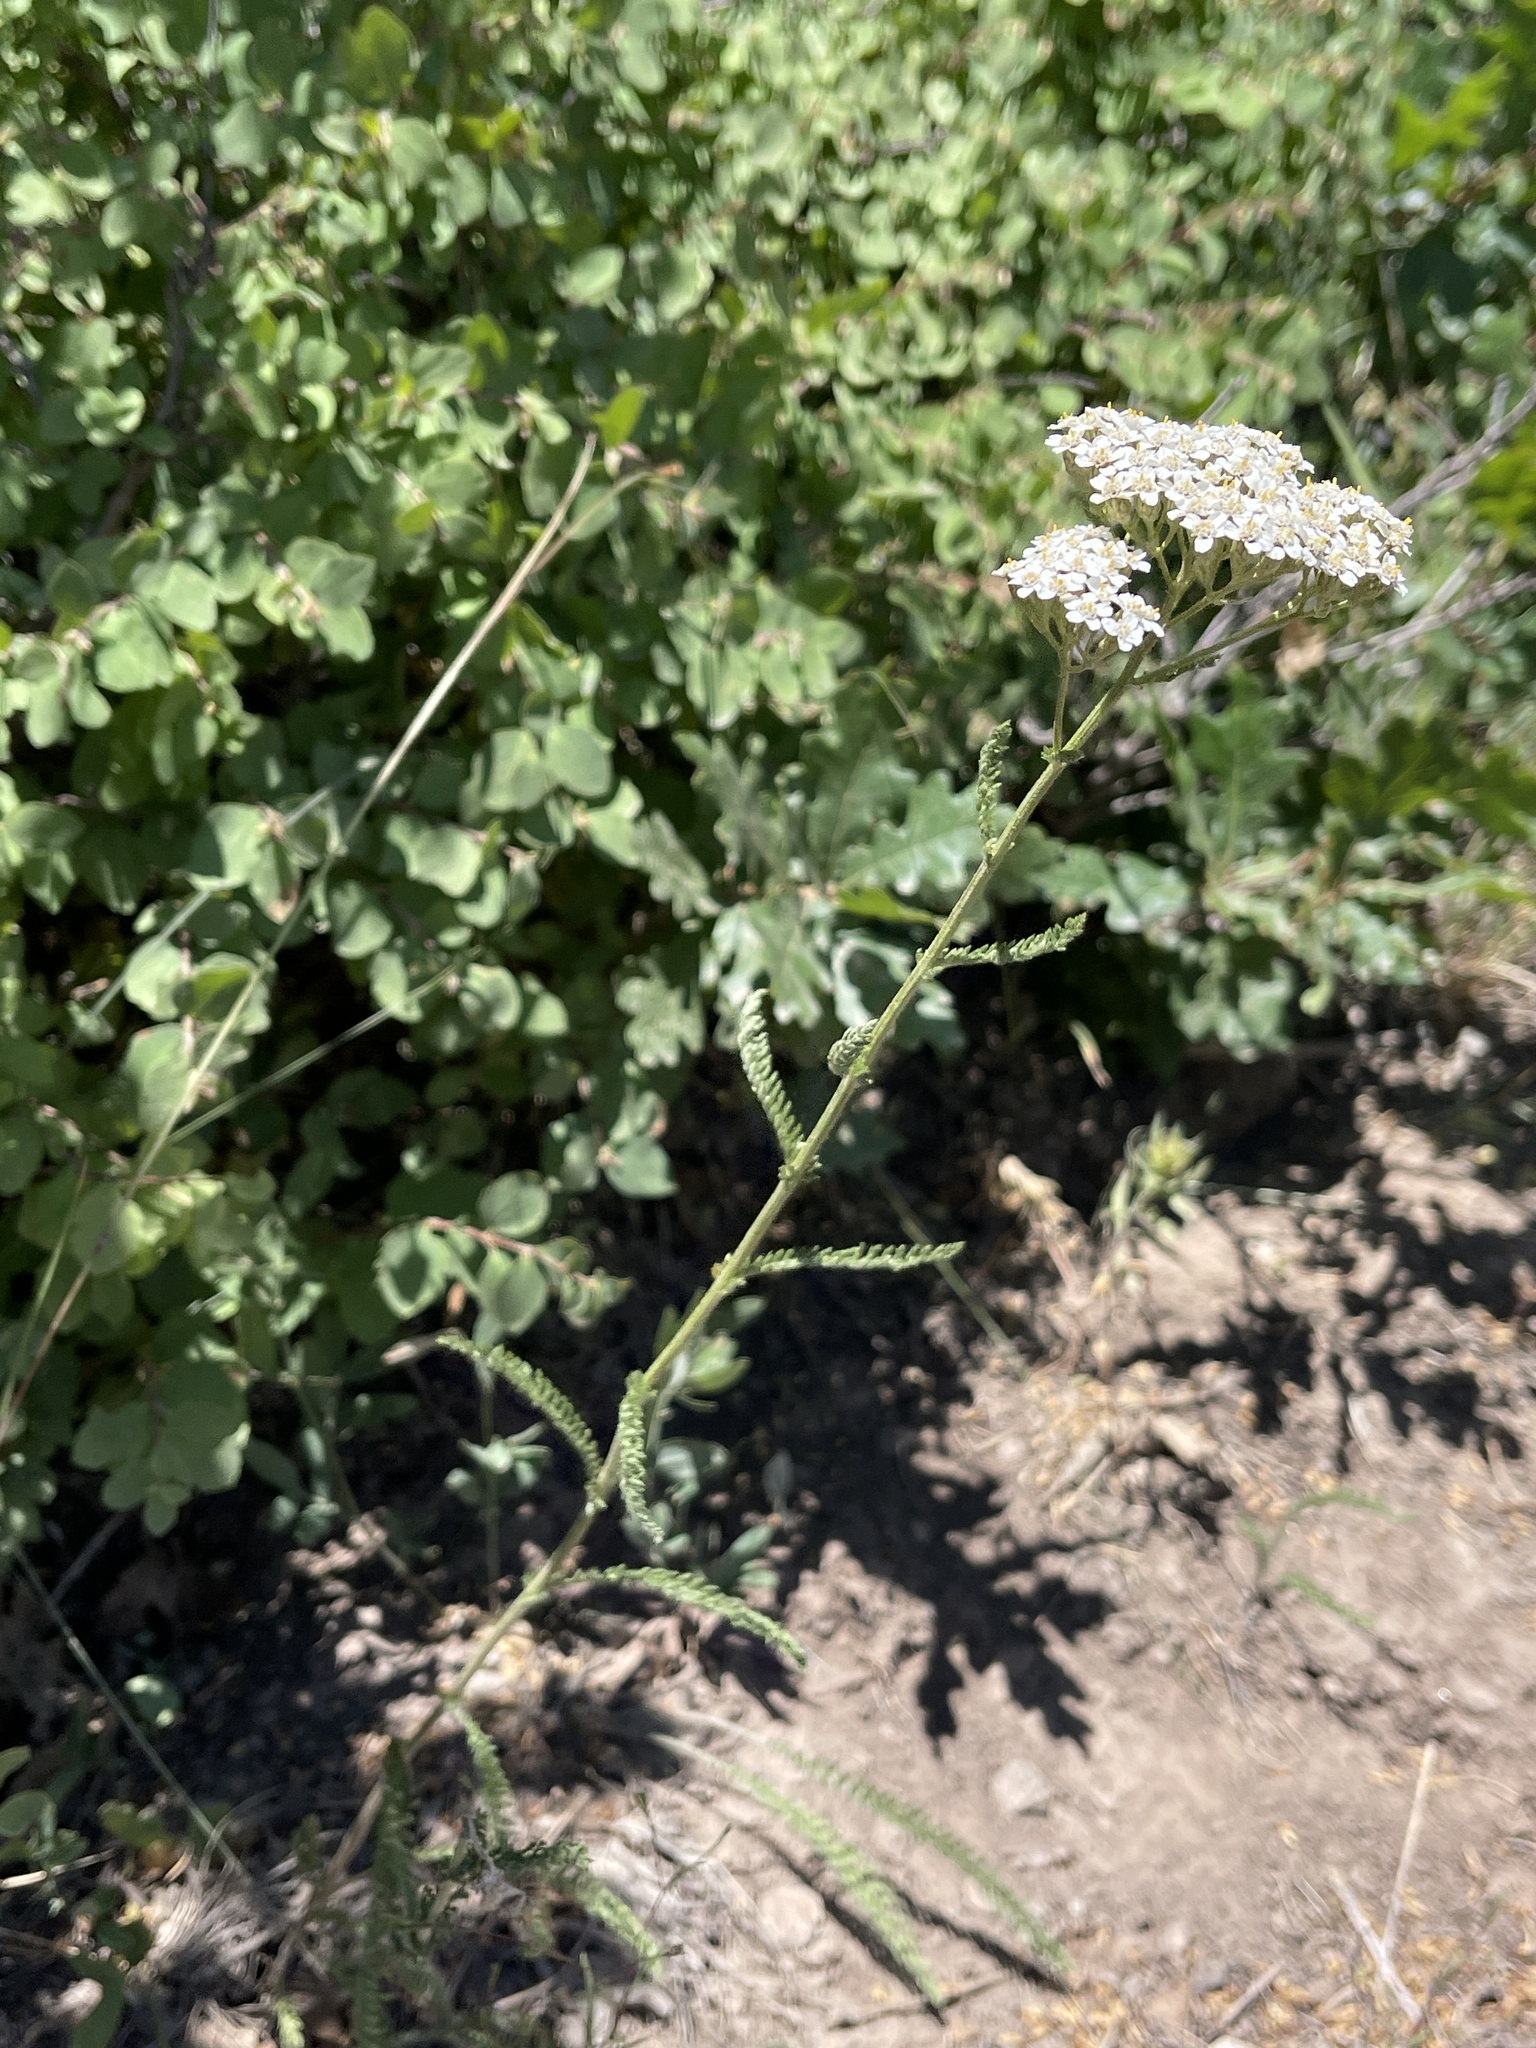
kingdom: Plantae
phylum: Tracheophyta
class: Magnoliopsida
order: Asterales
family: Asteraceae
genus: Achillea
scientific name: Achillea millefolium
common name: Yarrow
